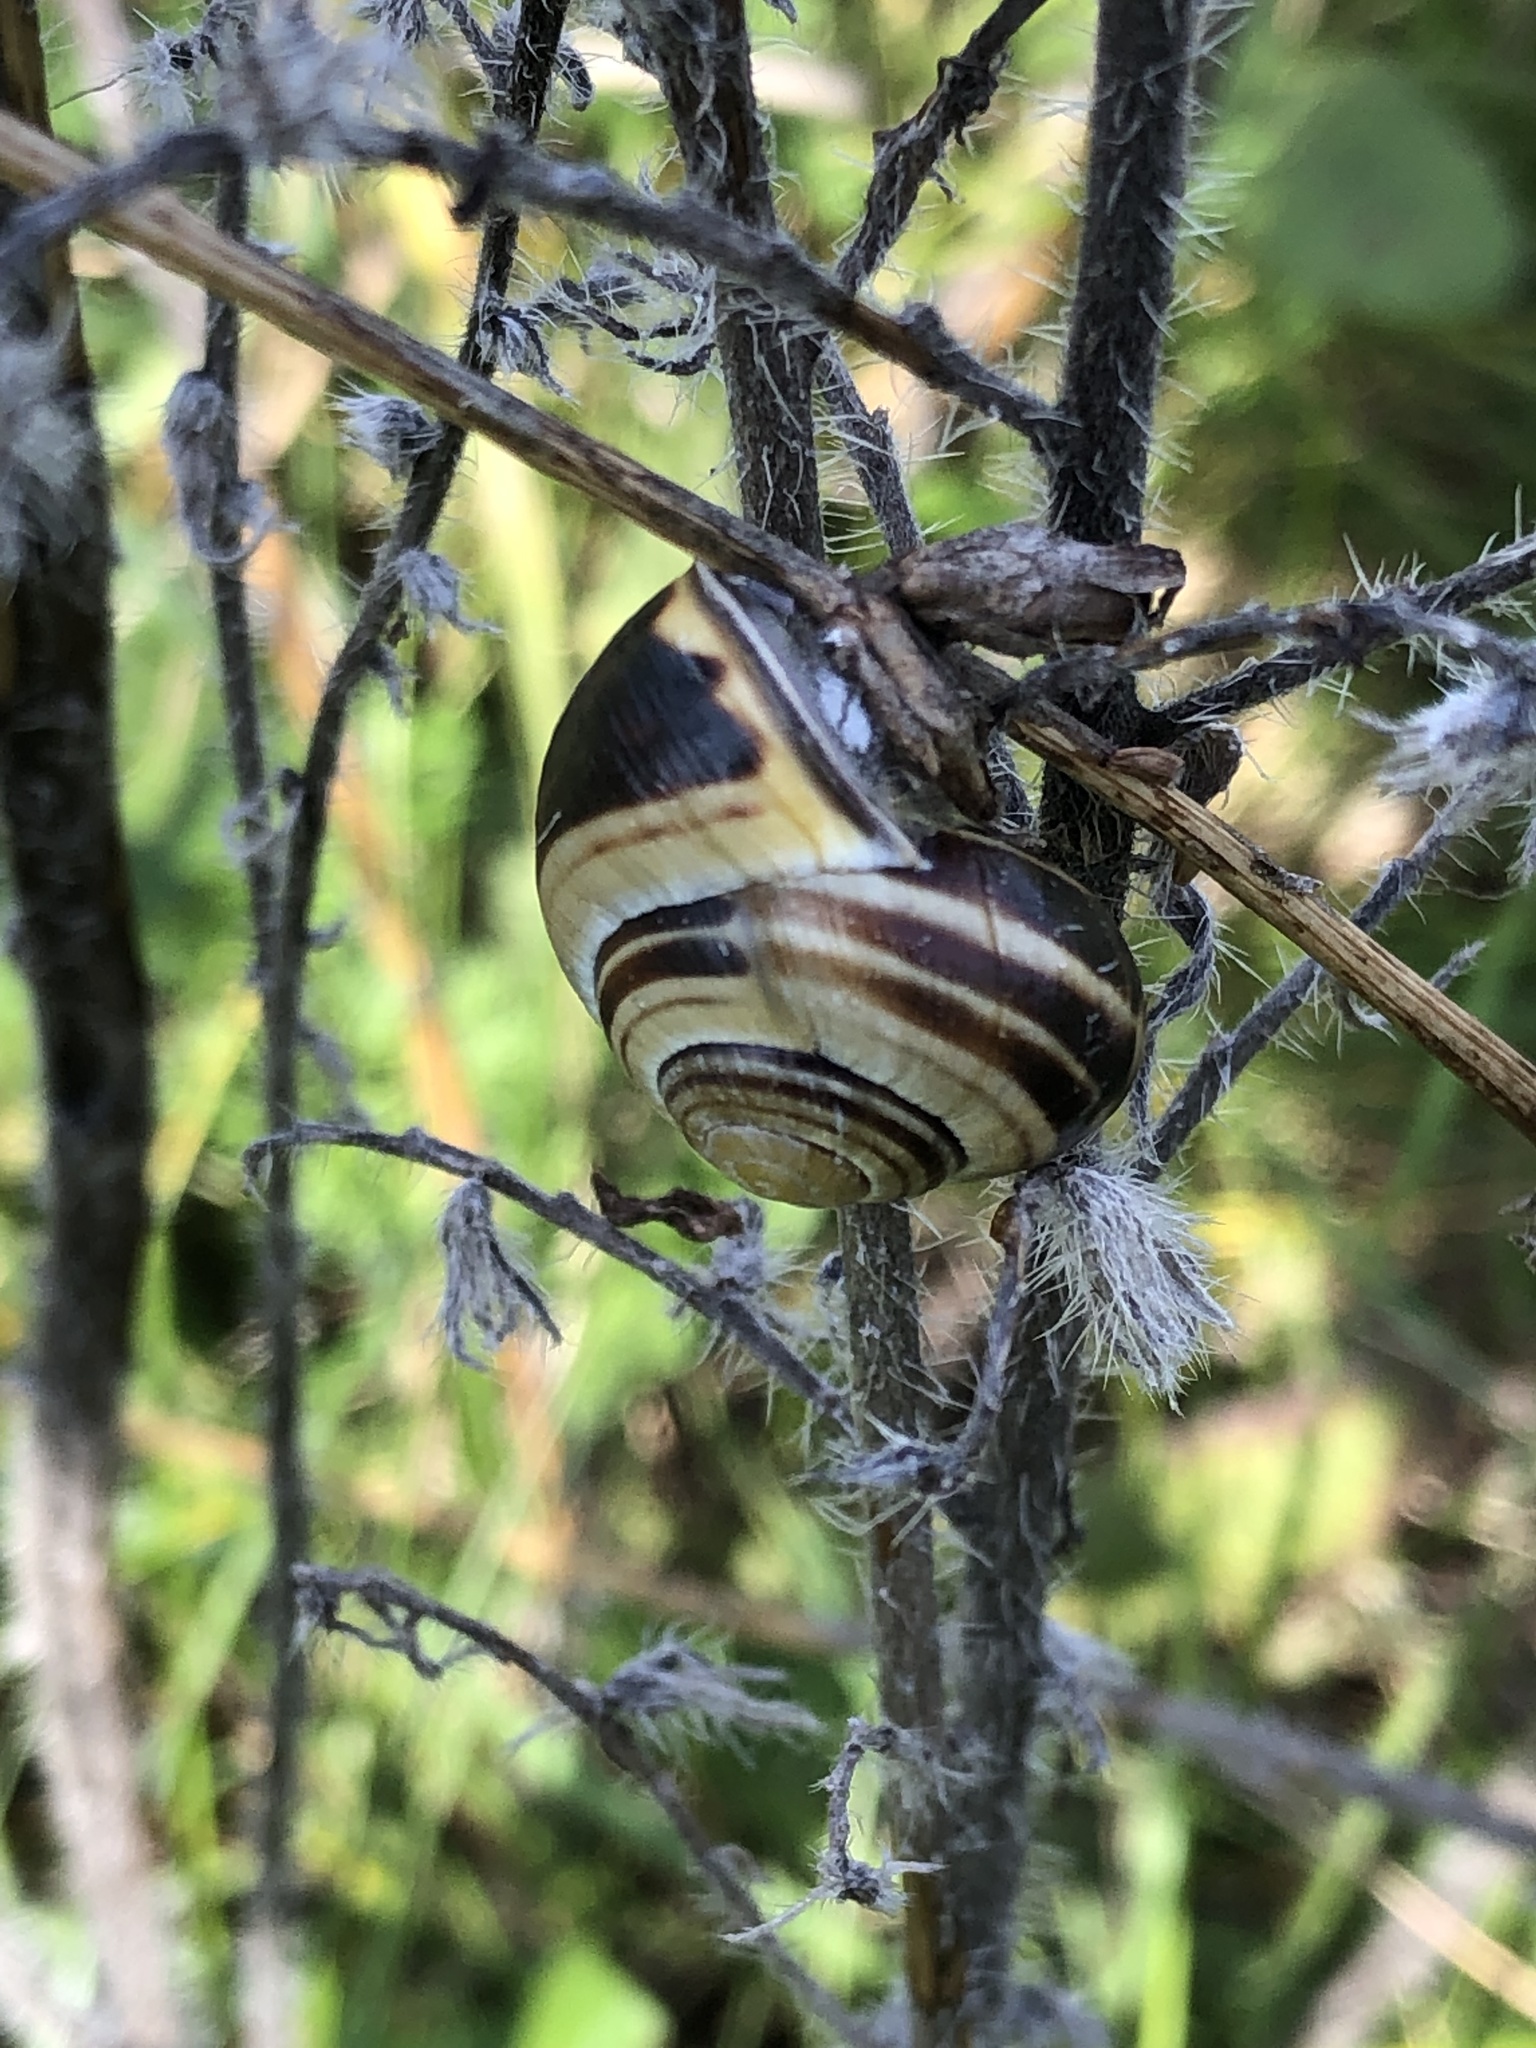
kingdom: Animalia
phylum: Mollusca
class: Gastropoda
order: Stylommatophora
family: Helicidae
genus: Cepaea
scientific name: Cepaea nemoralis
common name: Grovesnail
